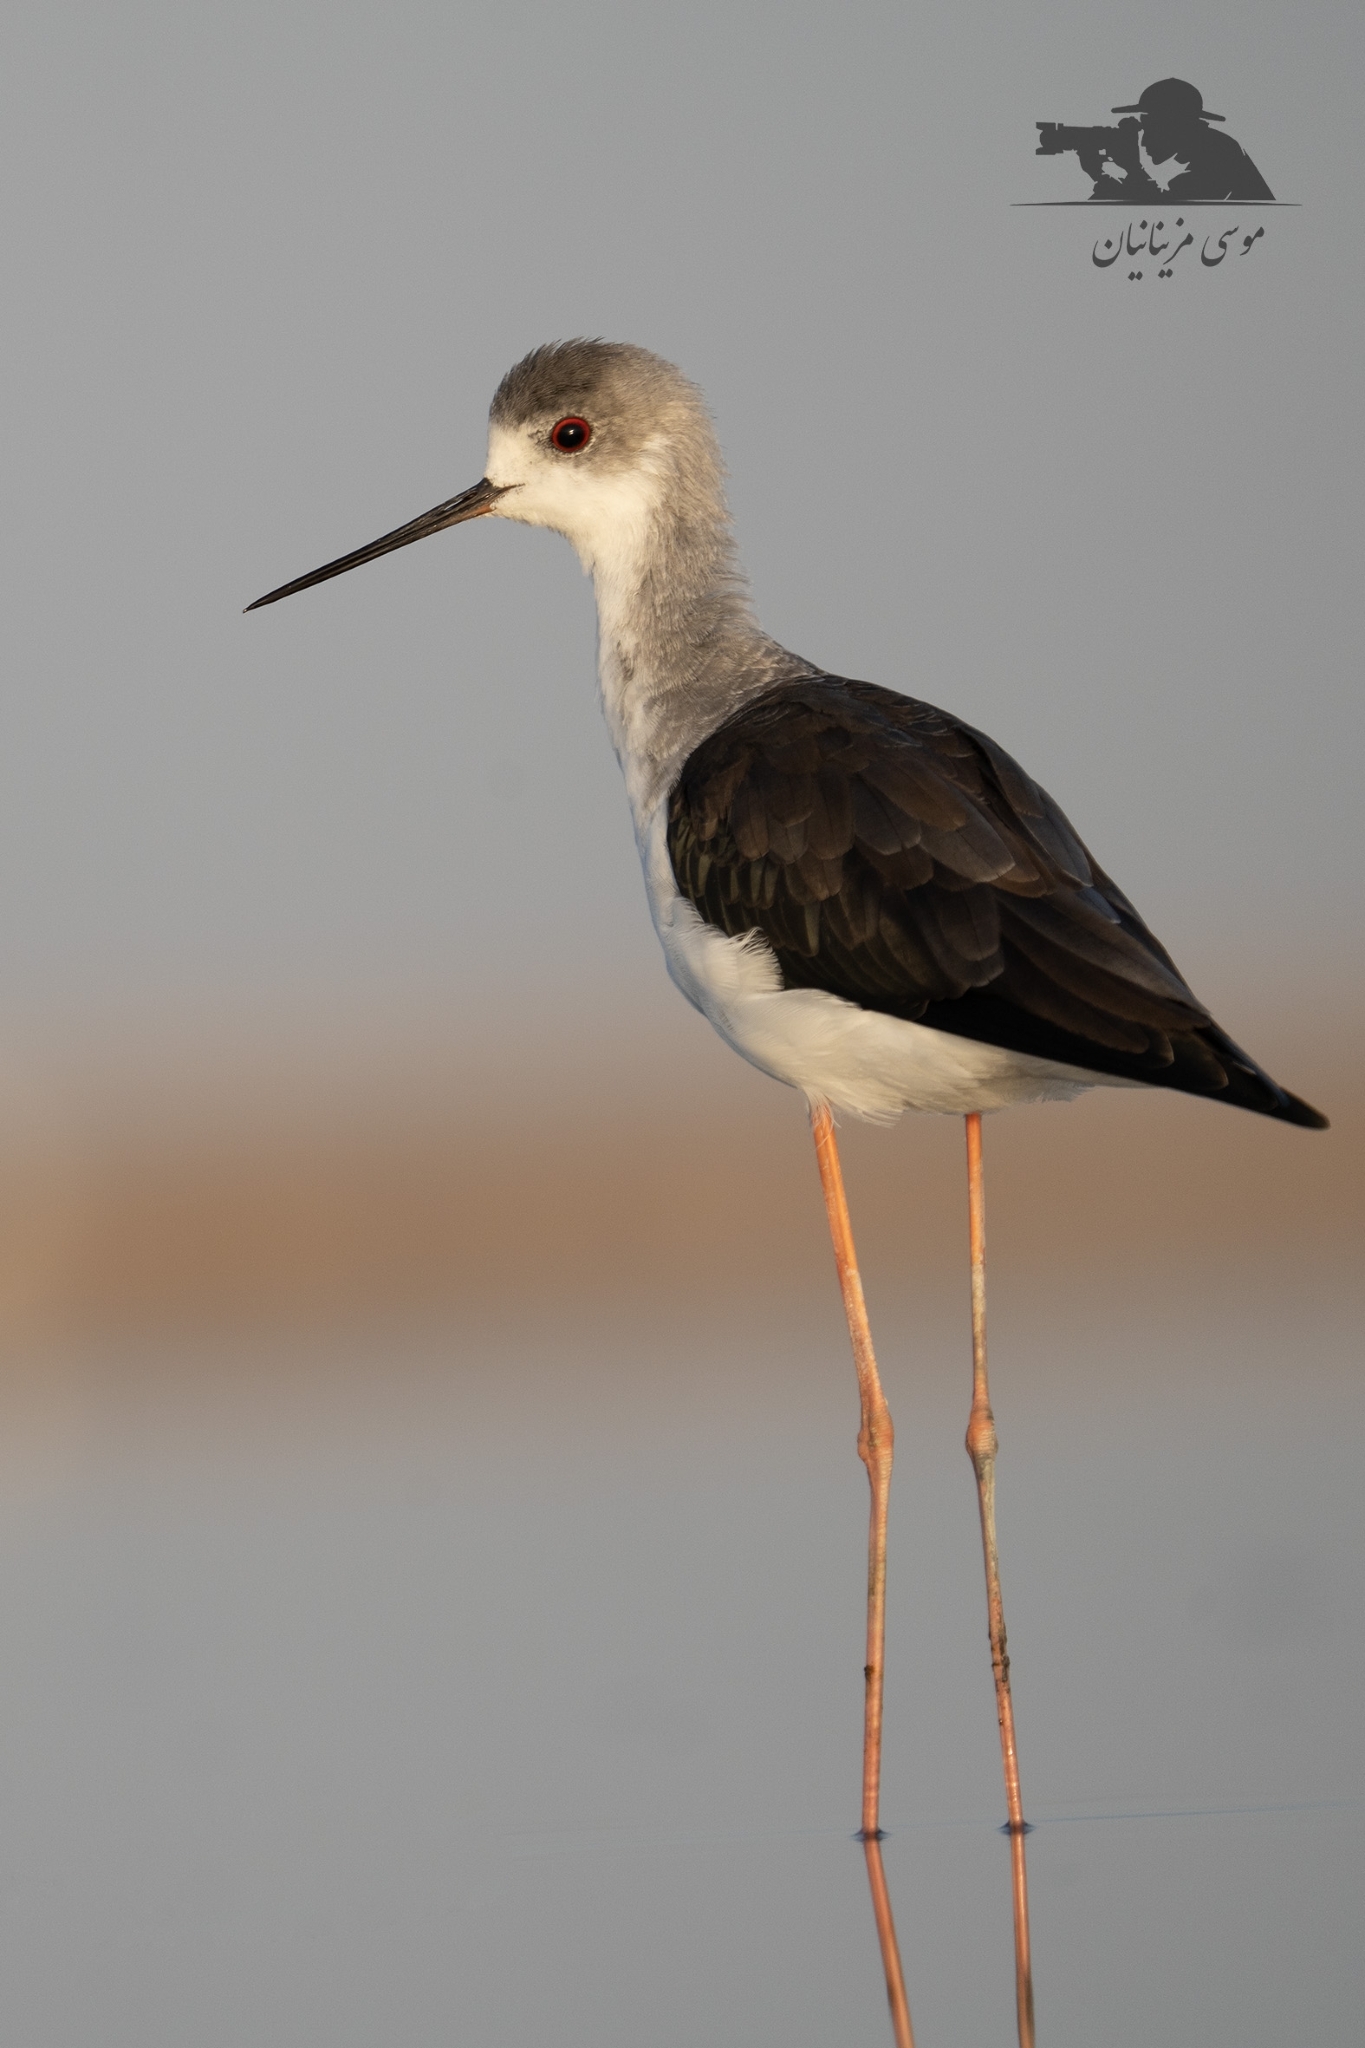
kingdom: Animalia
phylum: Chordata
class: Aves
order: Charadriiformes
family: Recurvirostridae
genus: Himantopus
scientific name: Himantopus himantopus
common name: Black-winged stilt
